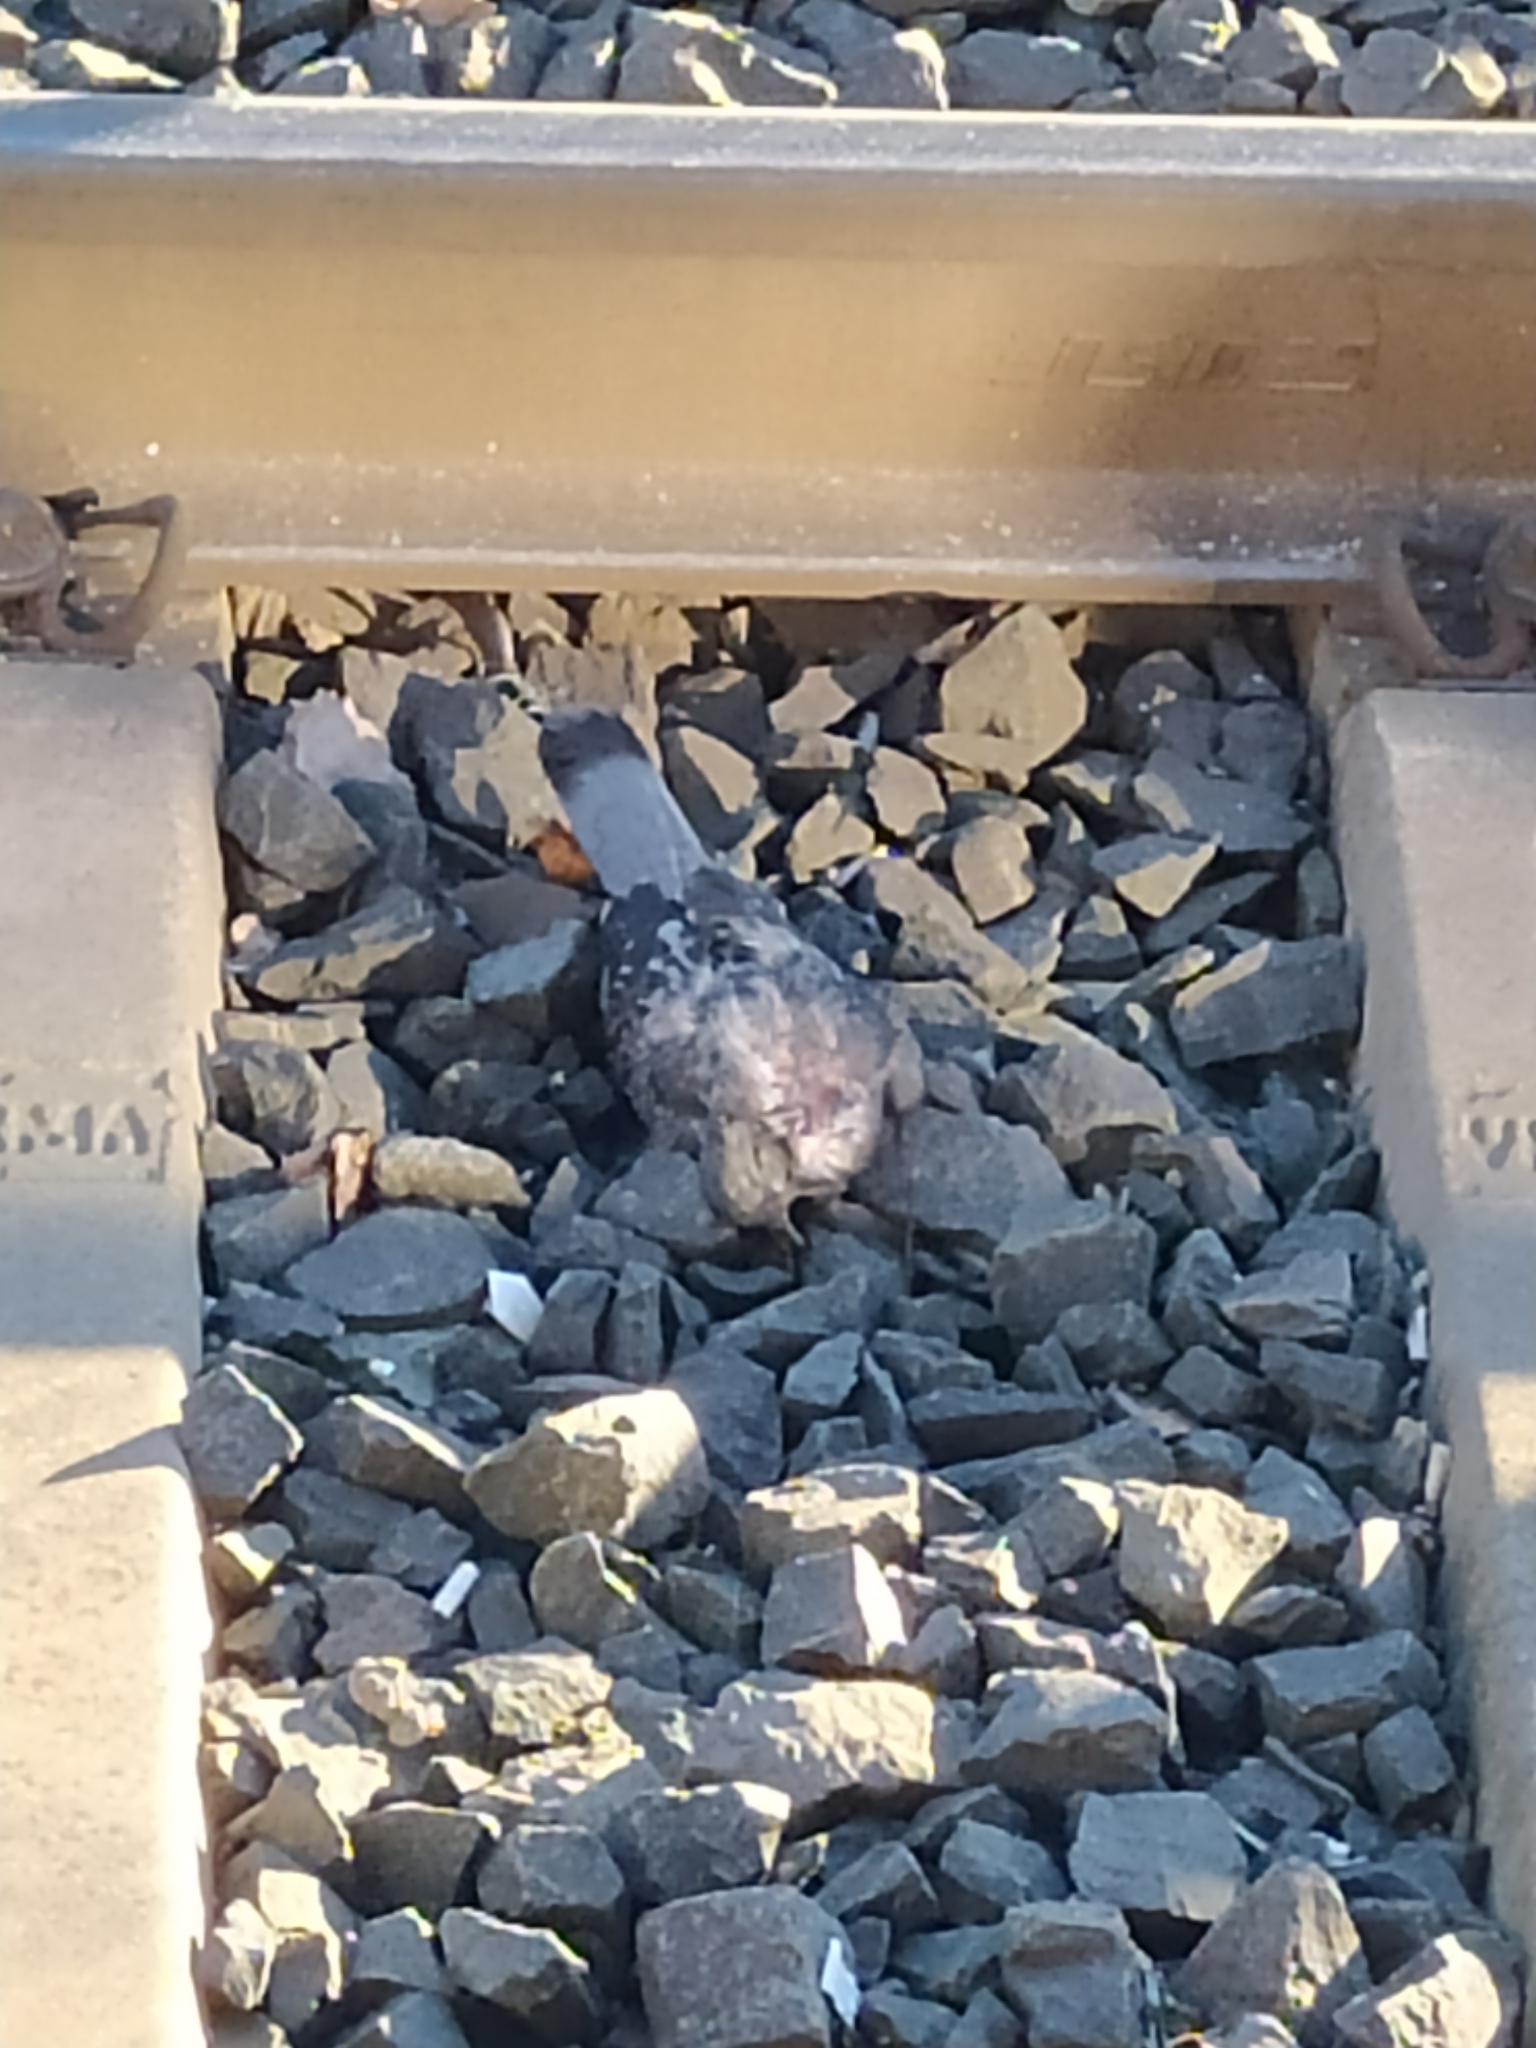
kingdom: Animalia
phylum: Chordata
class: Aves
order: Columbiformes
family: Columbidae
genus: Columba
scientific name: Columba livia
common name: Rock pigeon
